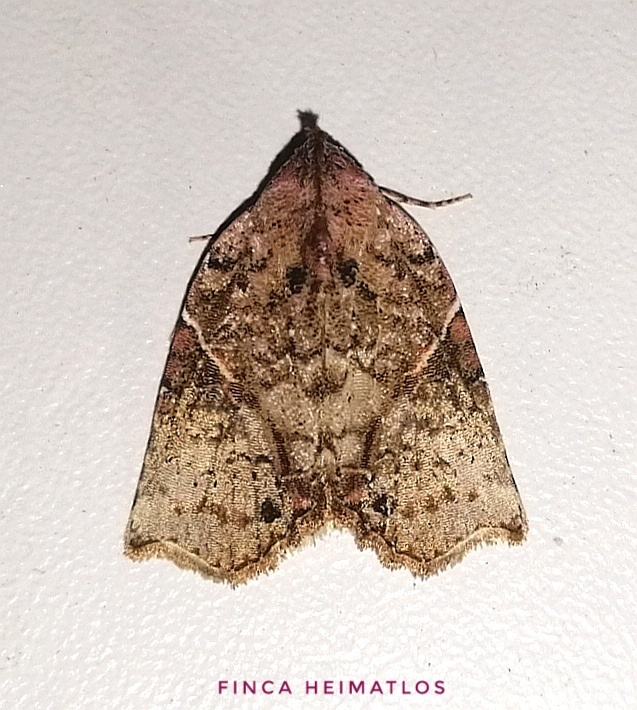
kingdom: Animalia
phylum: Arthropoda
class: Insecta
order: Lepidoptera
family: Noctuidae
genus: Gonodes
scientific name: Gonodes obliqua
